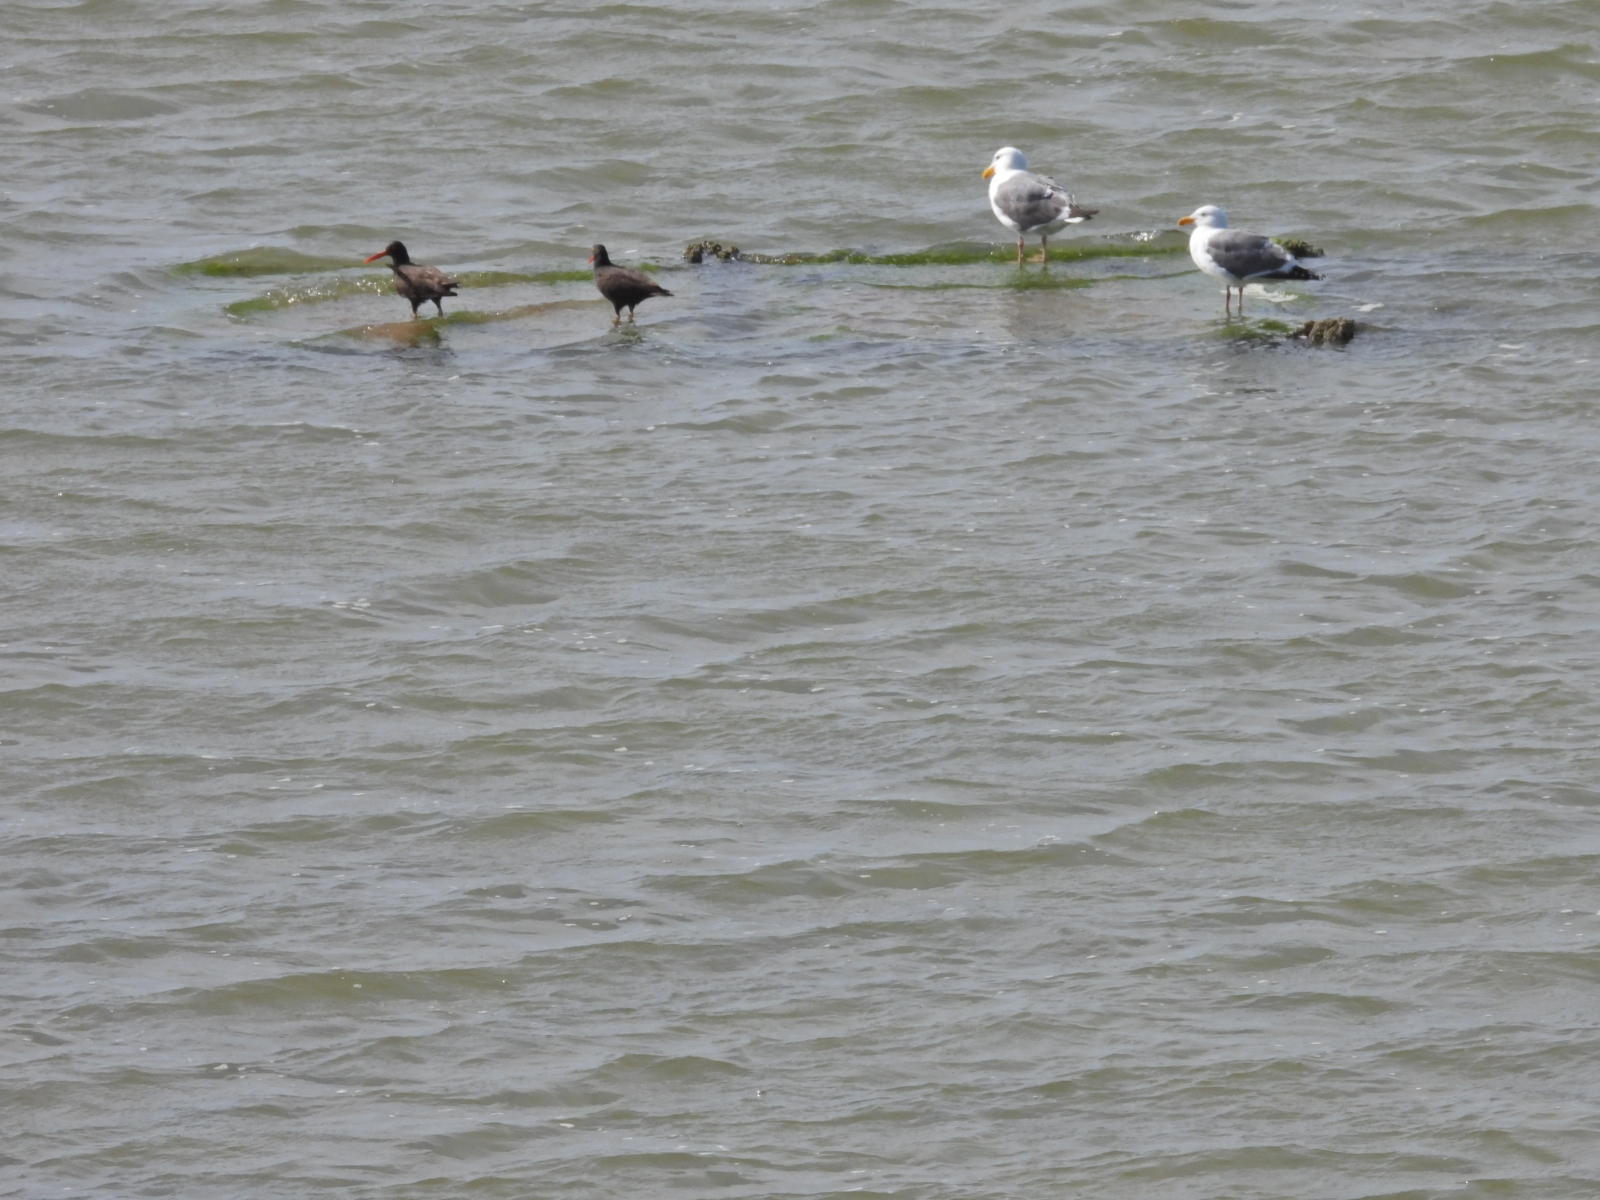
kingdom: Animalia
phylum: Chordata
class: Aves
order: Charadriiformes
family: Laridae
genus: Larus
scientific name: Larus occidentalis
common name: Western gull
